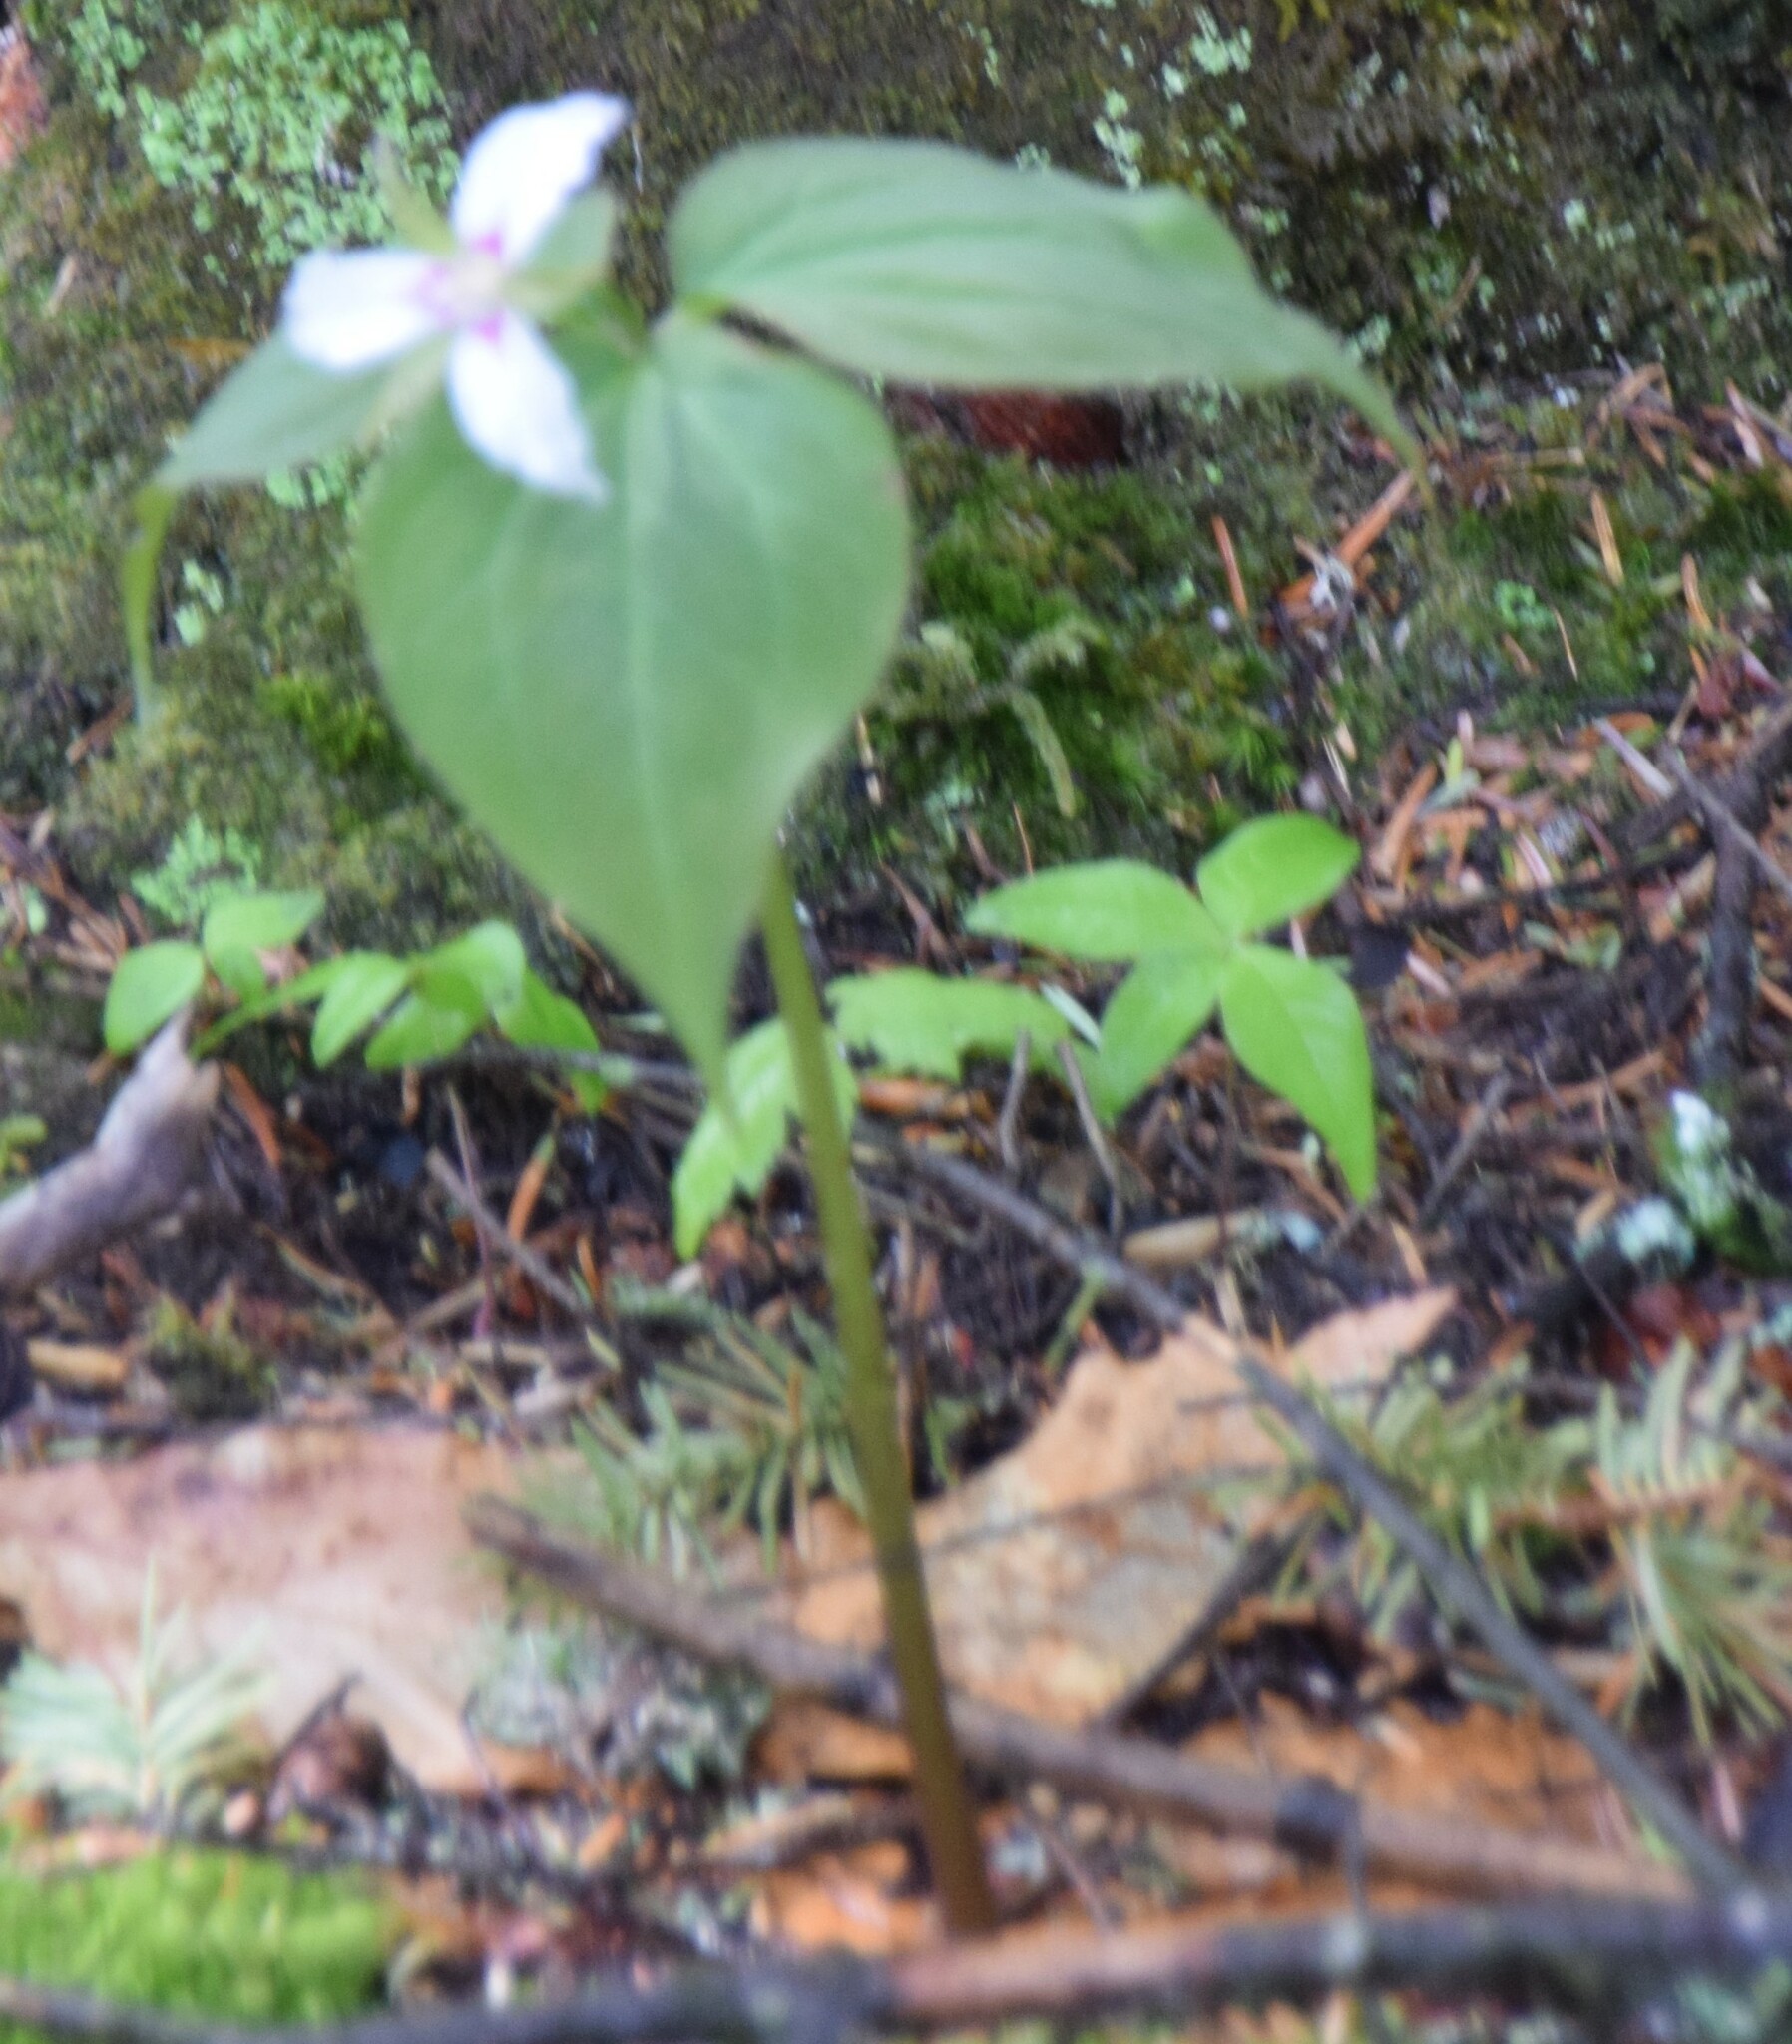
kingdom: Plantae
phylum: Tracheophyta
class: Liliopsida
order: Liliales
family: Melanthiaceae
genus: Trillium
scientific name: Trillium undulatum
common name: Paint trillium
